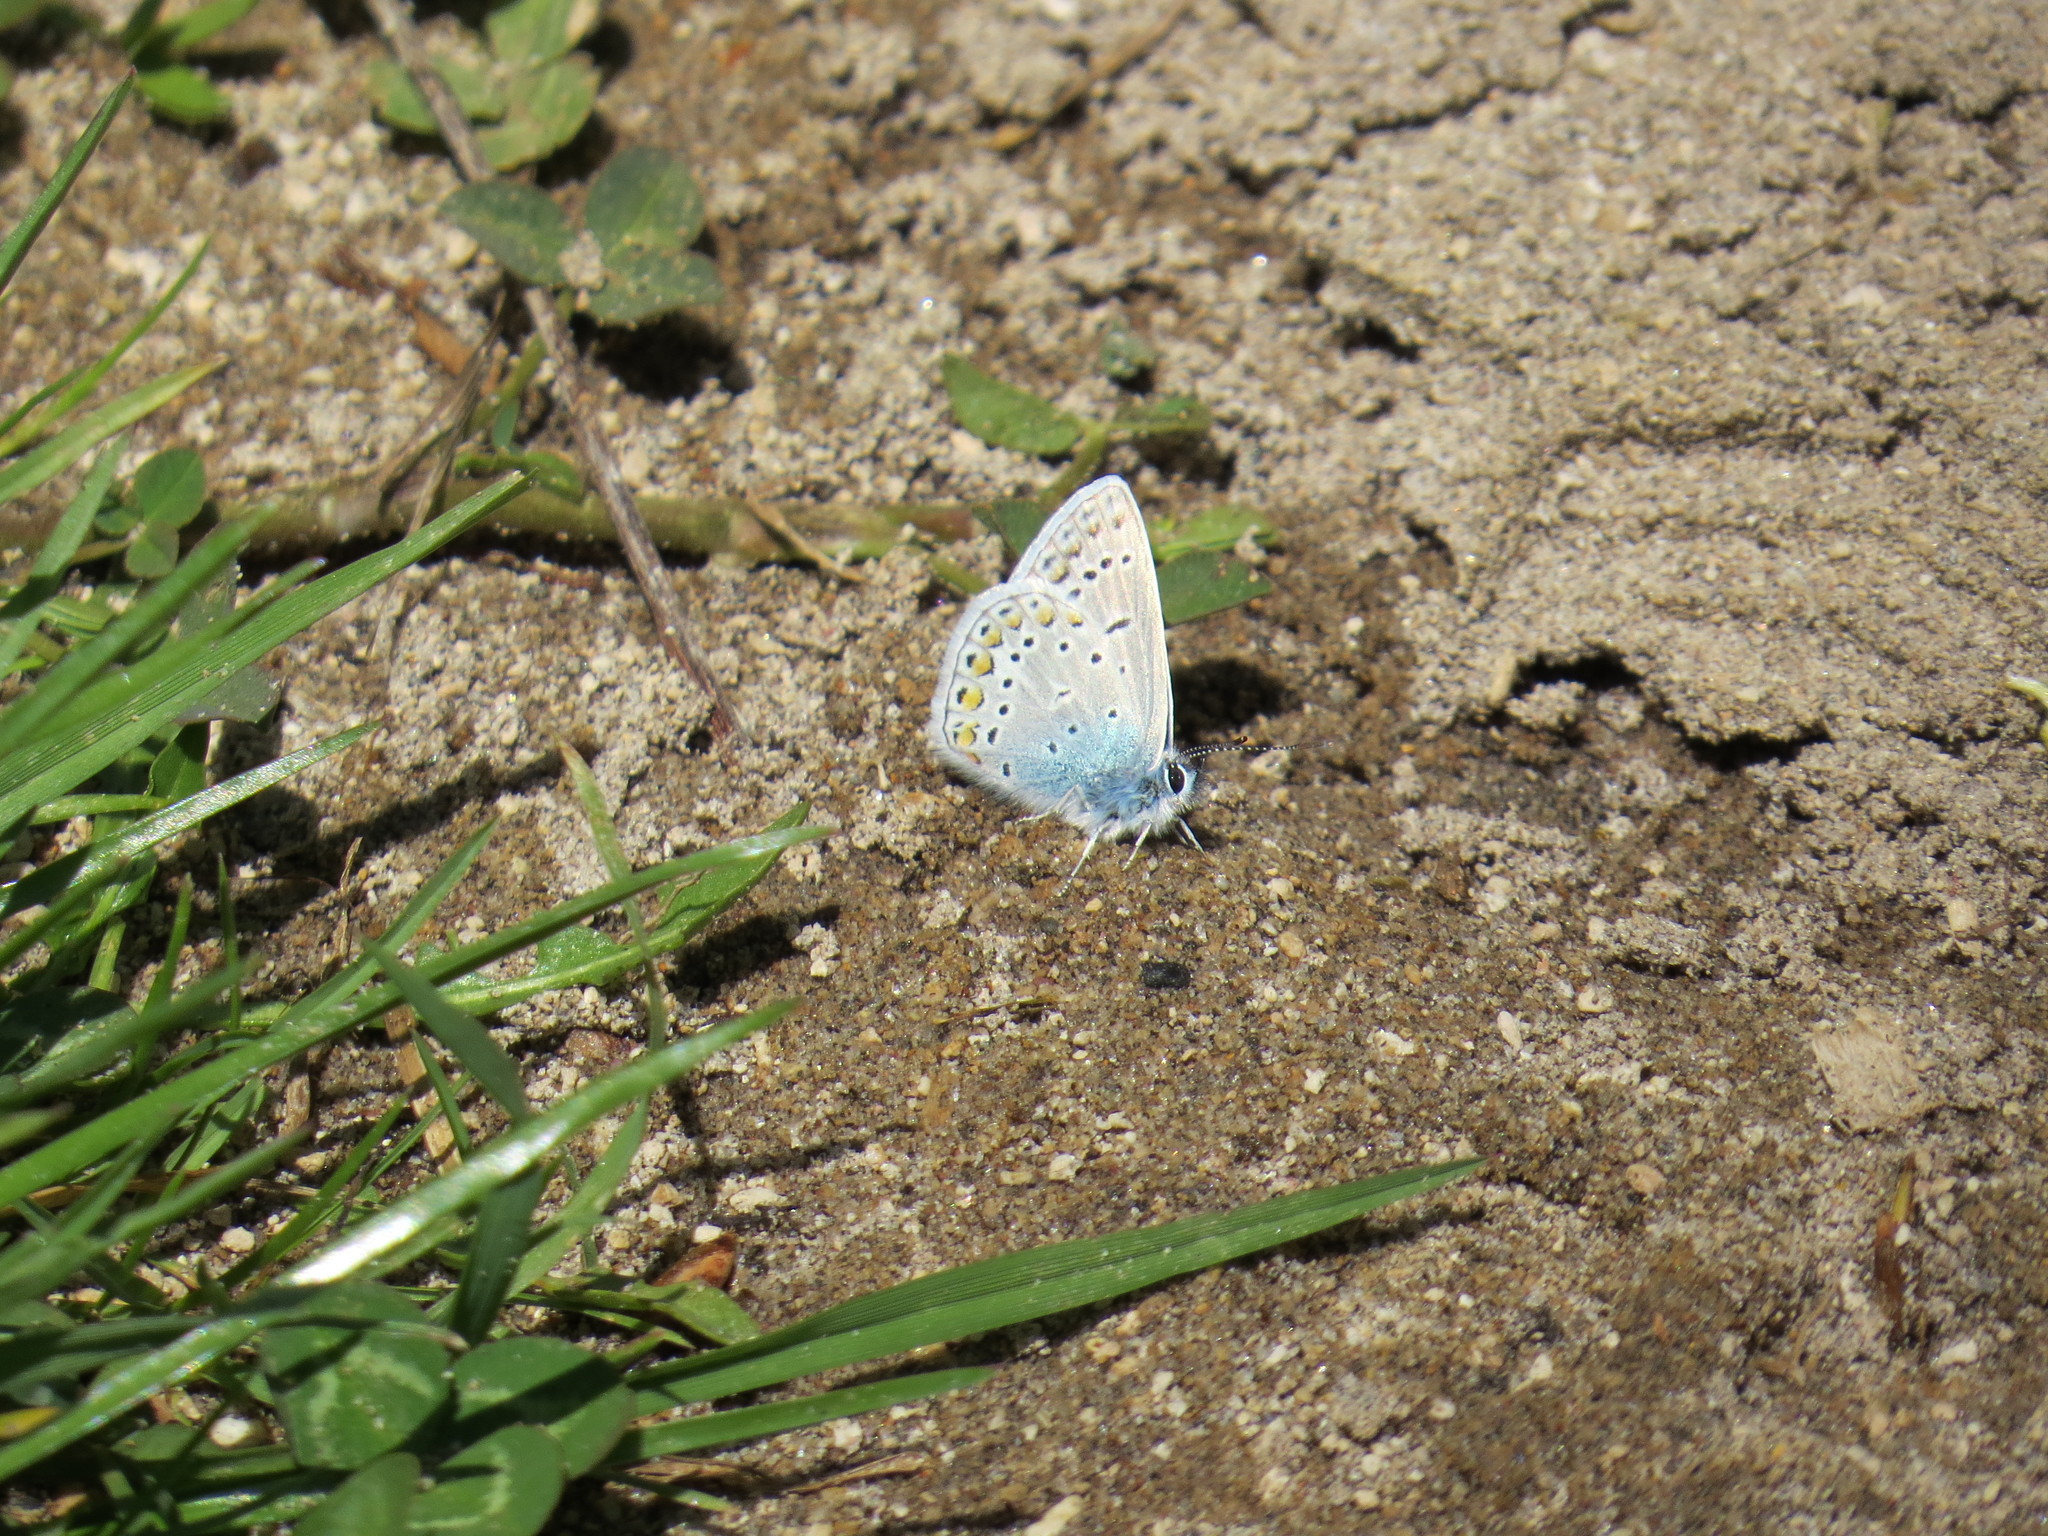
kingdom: Animalia
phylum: Arthropoda
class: Insecta
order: Lepidoptera
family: Lycaenidae
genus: Polyommatus
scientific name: Polyommatus icarus
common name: Common blue
